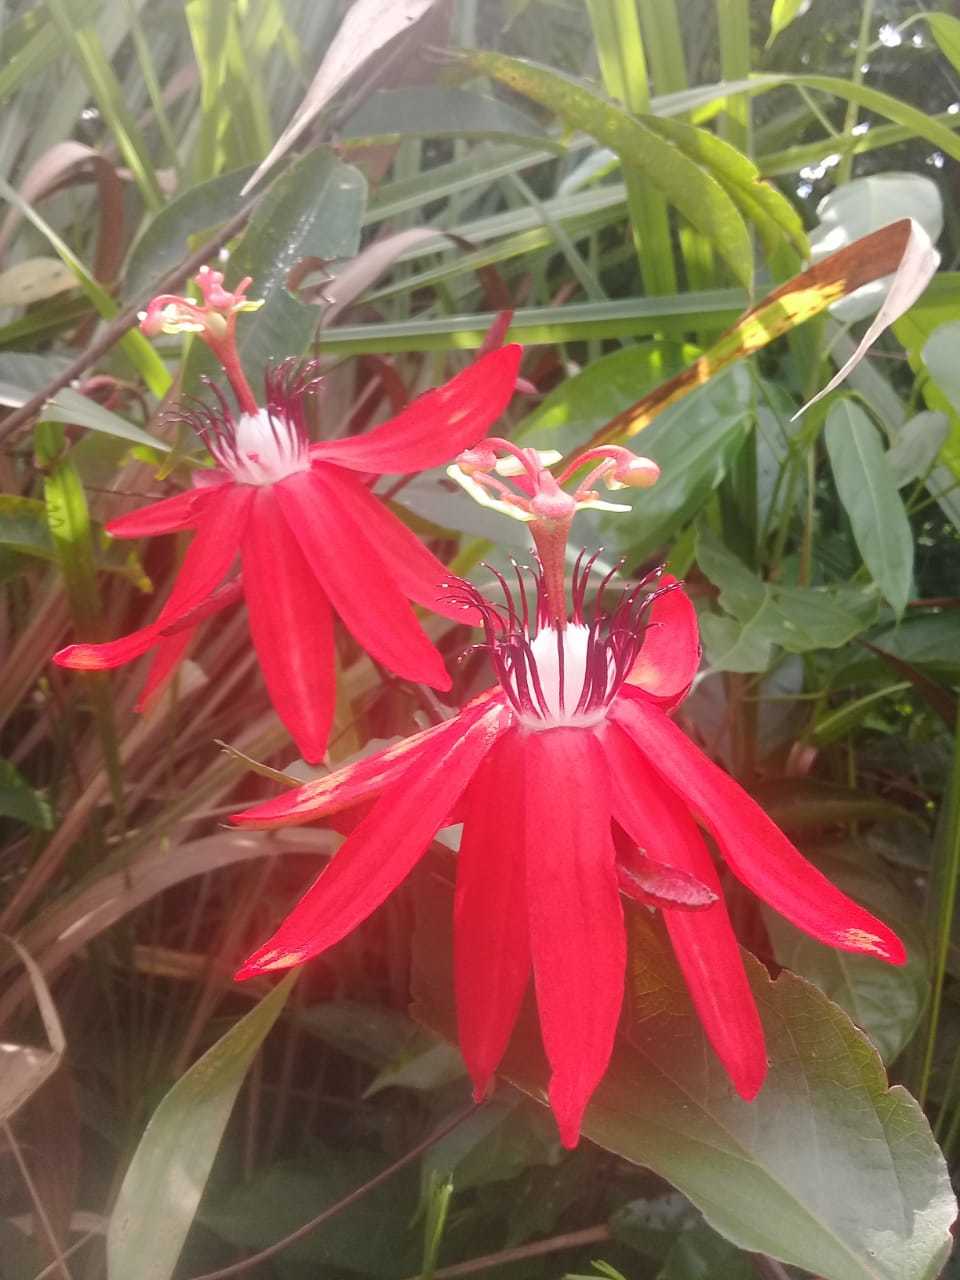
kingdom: Plantae
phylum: Tracheophyta
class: Magnoliopsida
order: Malpighiales
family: Passifloraceae
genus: Passiflora
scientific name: Passiflora miniata
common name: Red granadilla
